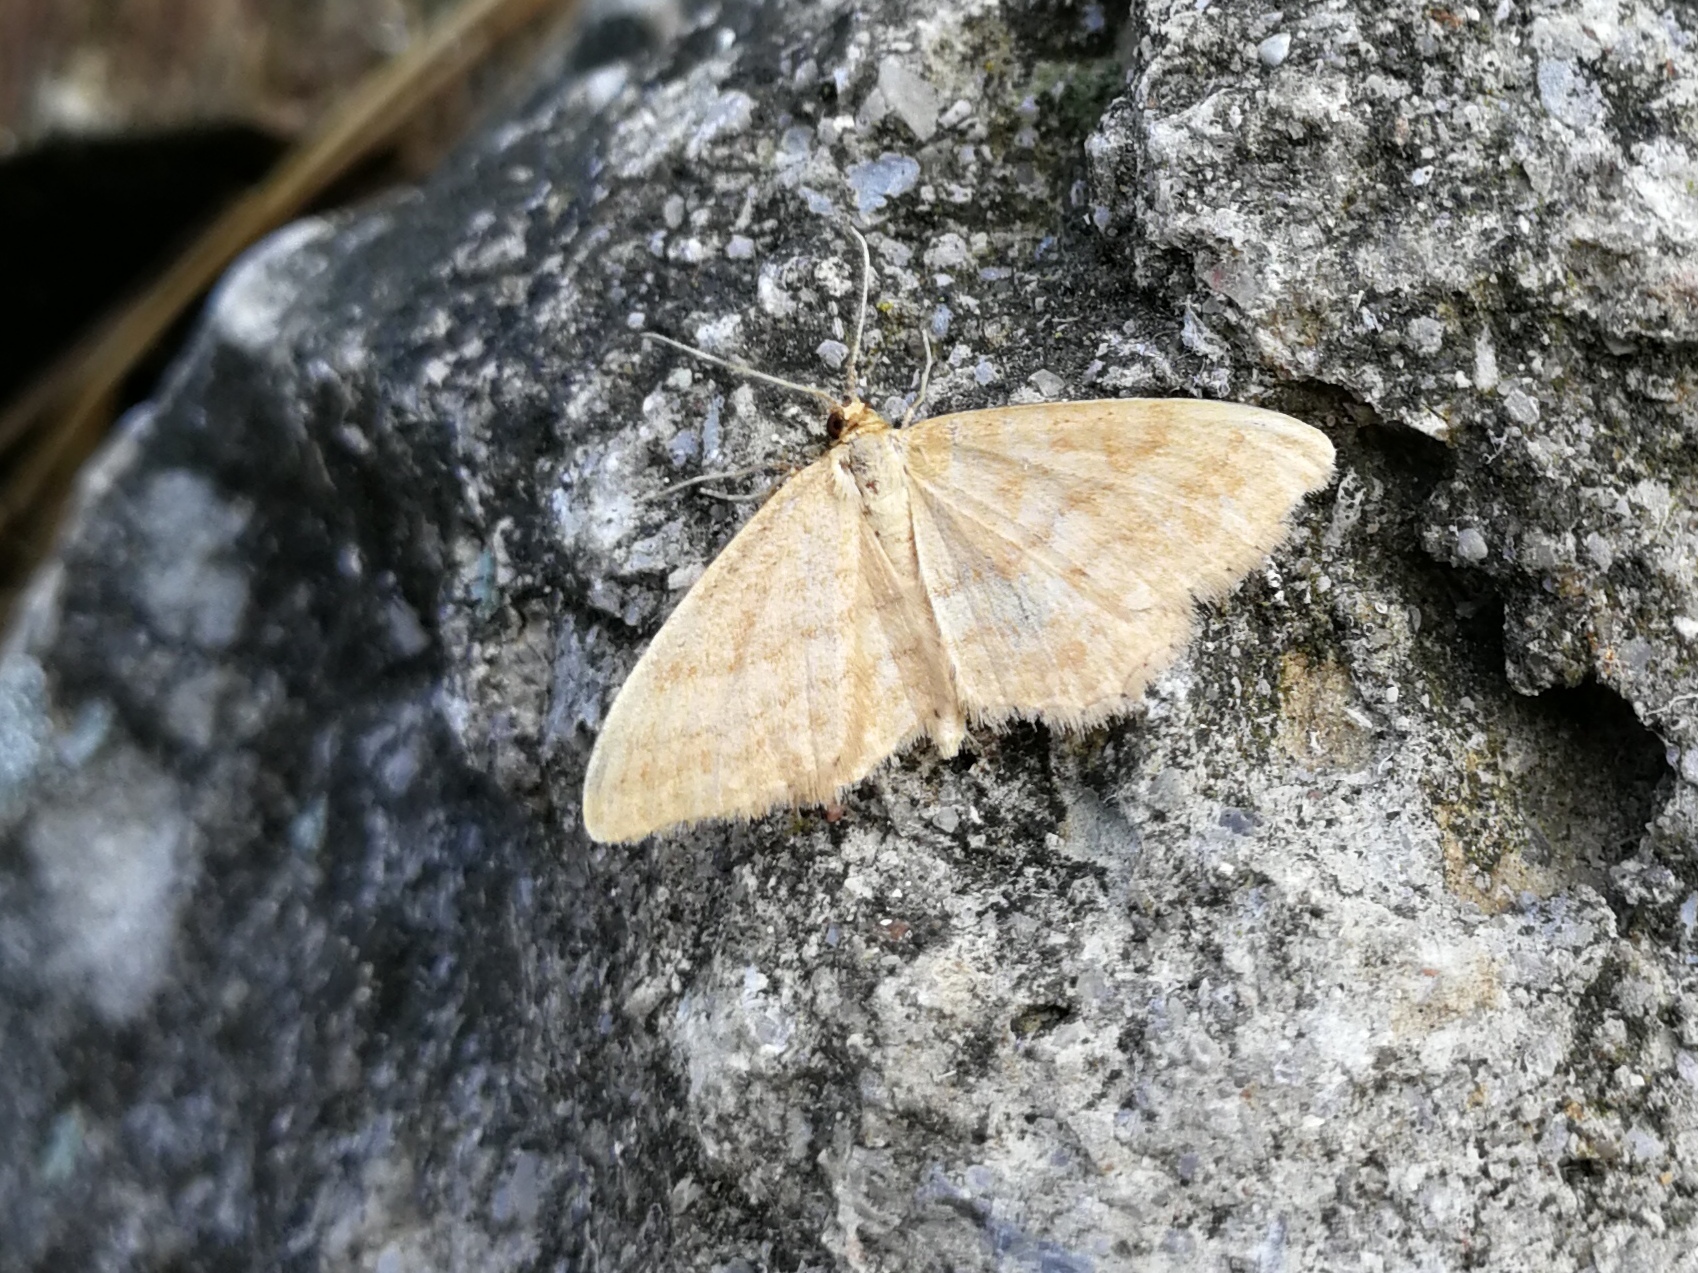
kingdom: Animalia
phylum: Arthropoda
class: Insecta
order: Lepidoptera
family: Geometridae
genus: Idaea
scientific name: Idaea ochrata
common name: Bright wave
